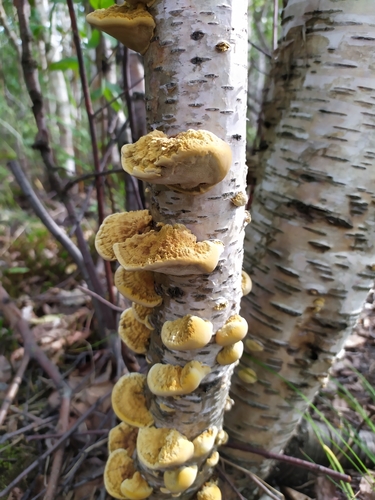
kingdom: Fungi
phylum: Basidiomycota
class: Agaricomycetes
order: Hymenochaetales
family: Hymenochaetaceae
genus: Xanthoporia
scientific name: Xanthoporia radiata
